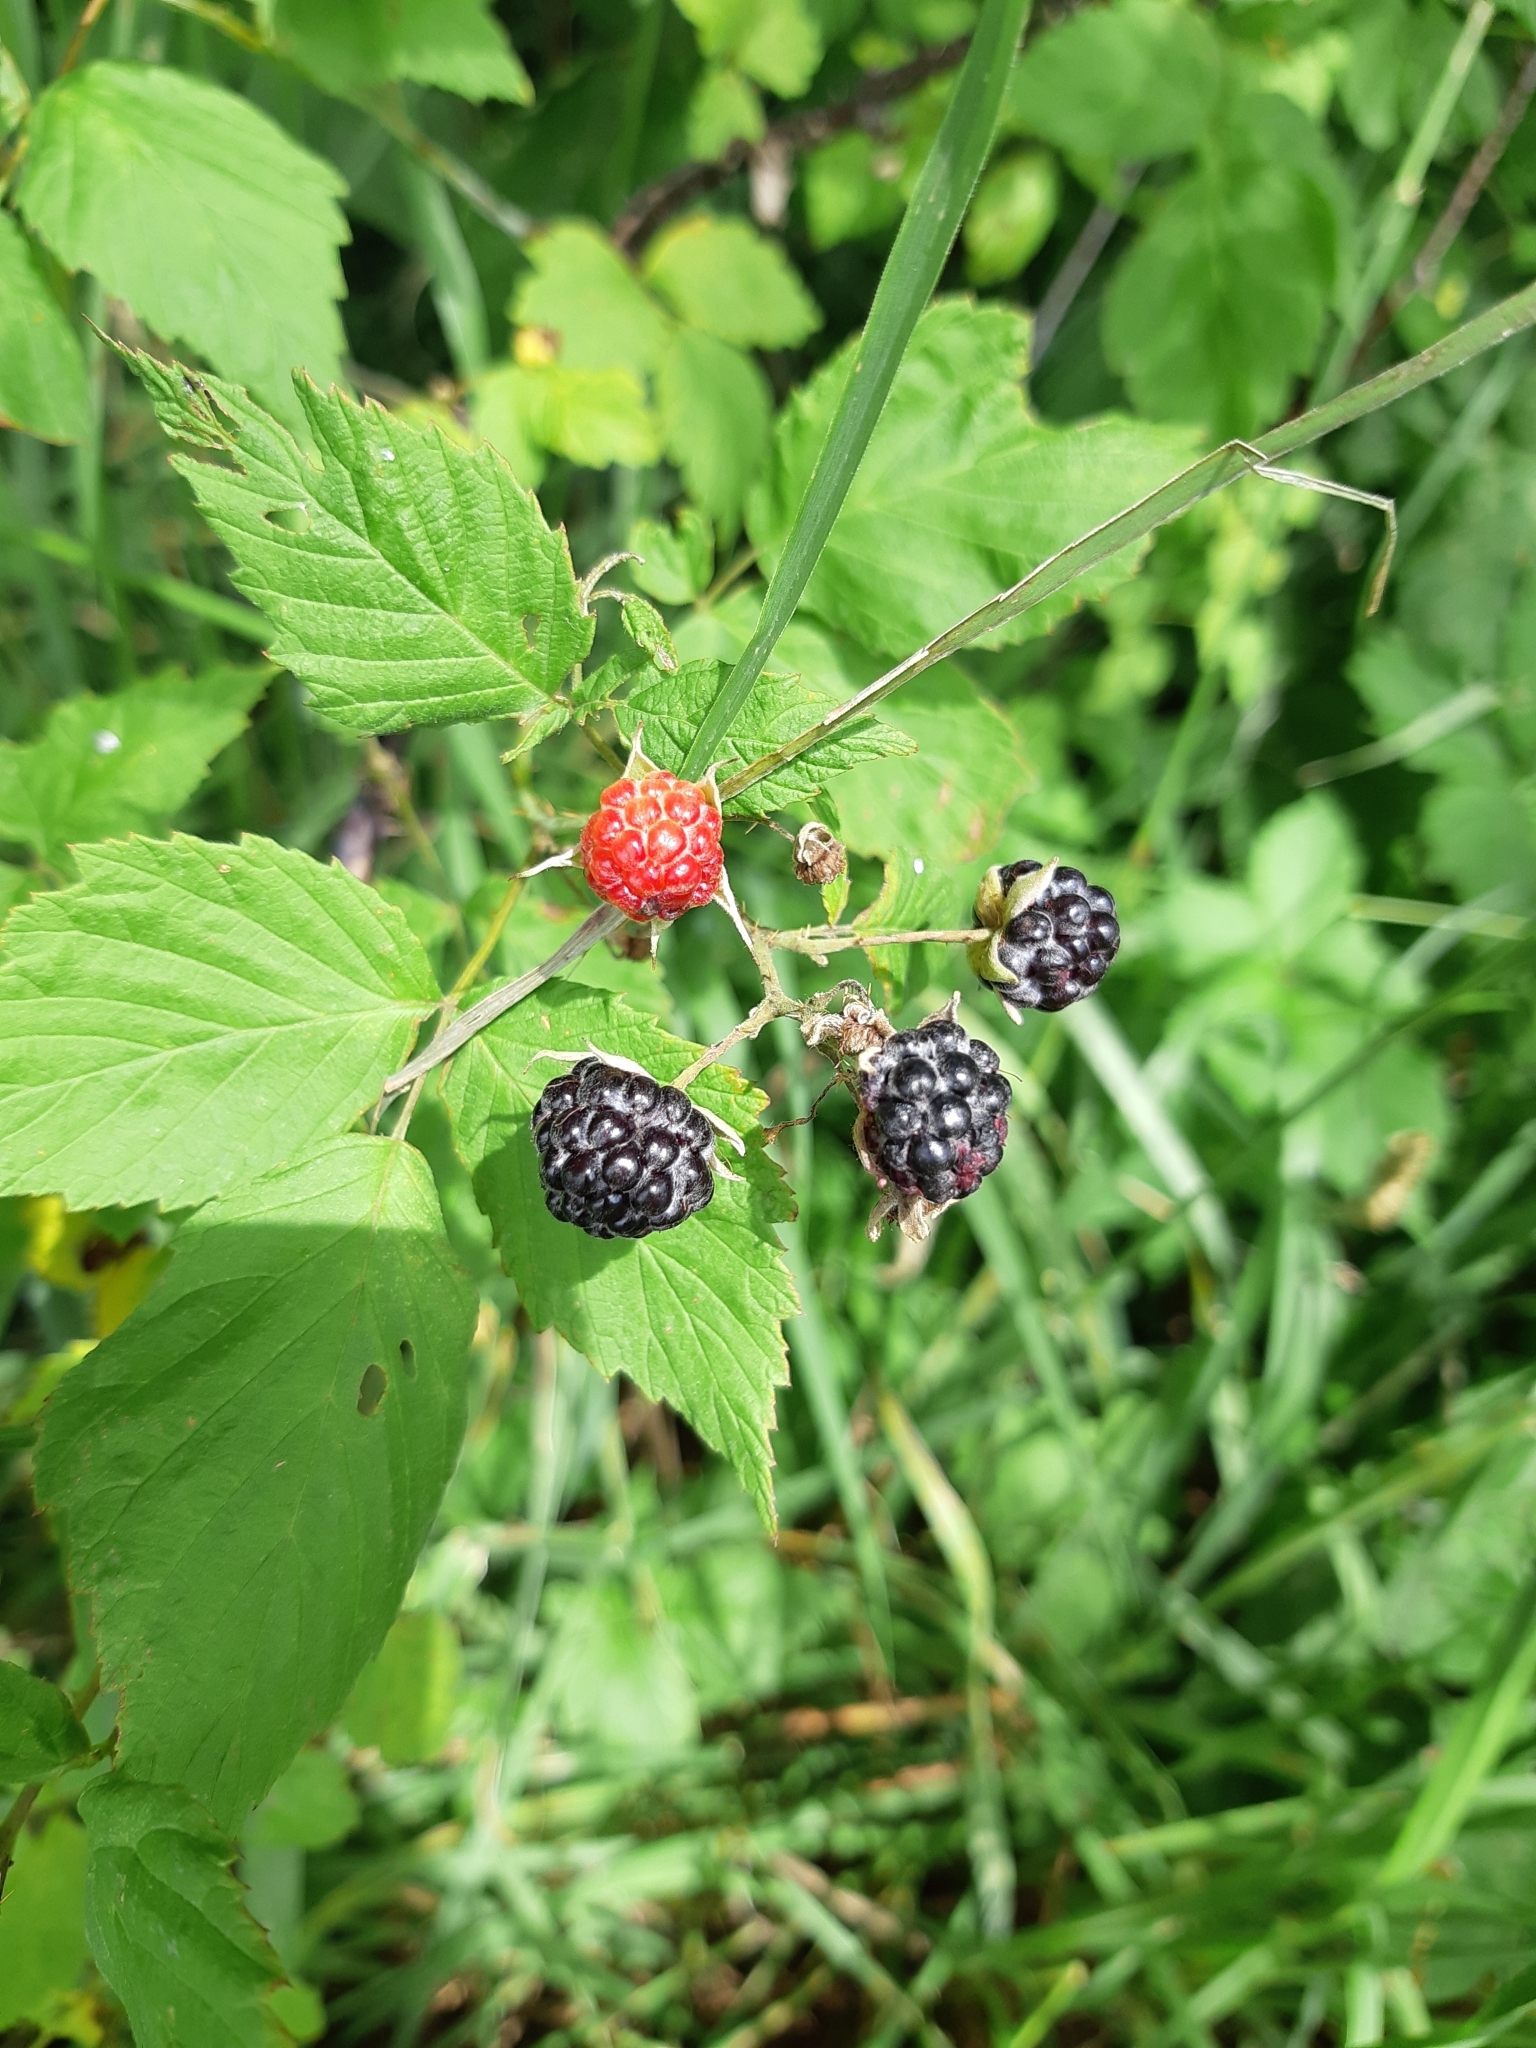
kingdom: Plantae
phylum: Tracheophyta
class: Magnoliopsida
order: Rosales
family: Rosaceae
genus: Rubus
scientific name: Rubus occidentalis
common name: Black raspberry
